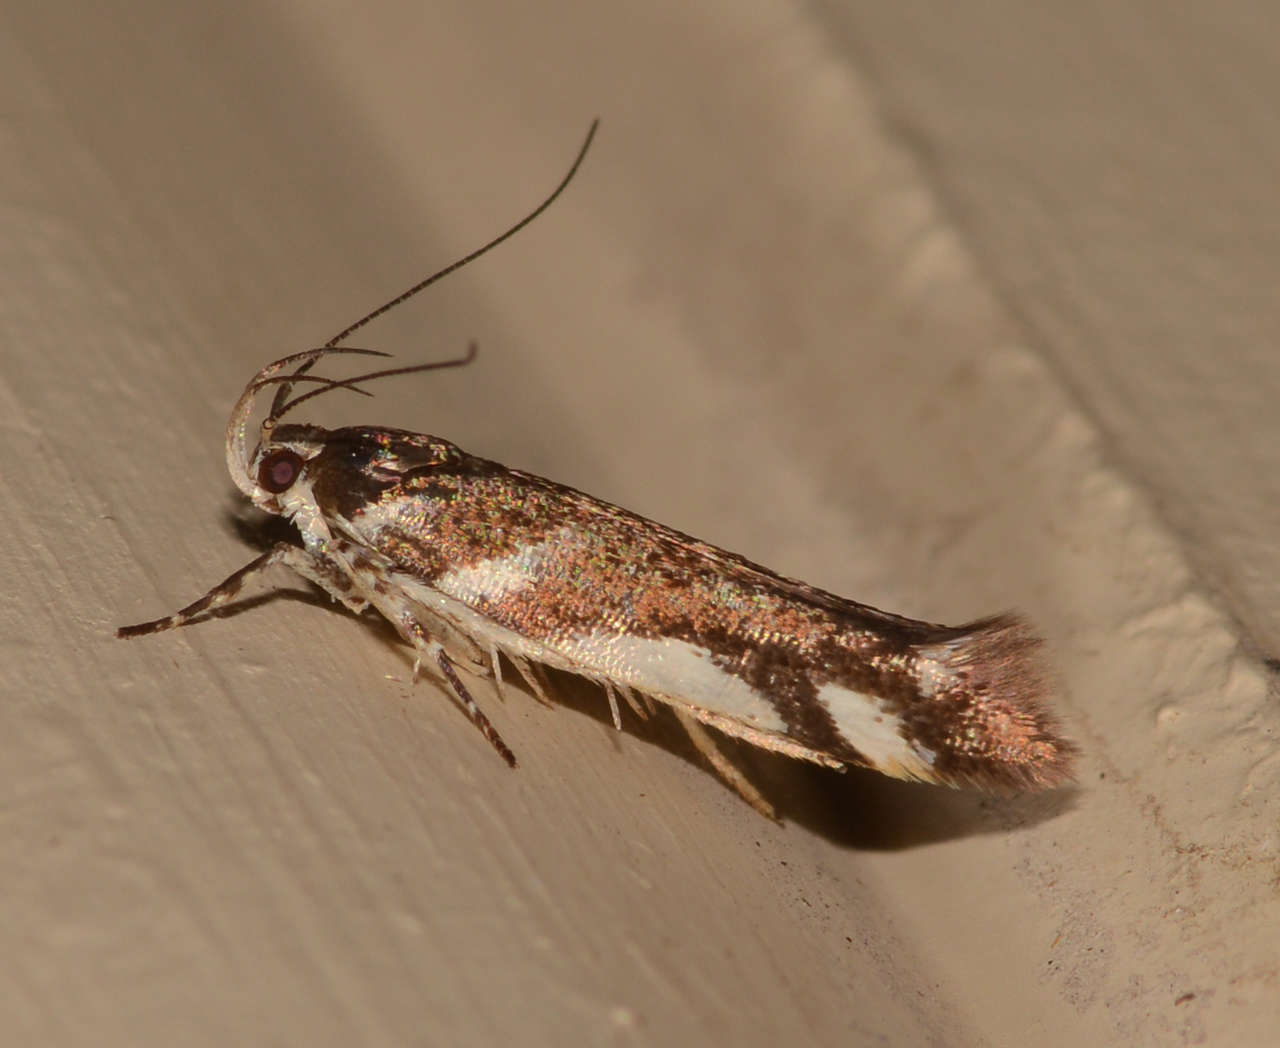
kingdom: Animalia
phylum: Arthropoda
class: Insecta
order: Lepidoptera
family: Cosmopterigidae
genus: Macrobathra
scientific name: Macrobathra heminephela
